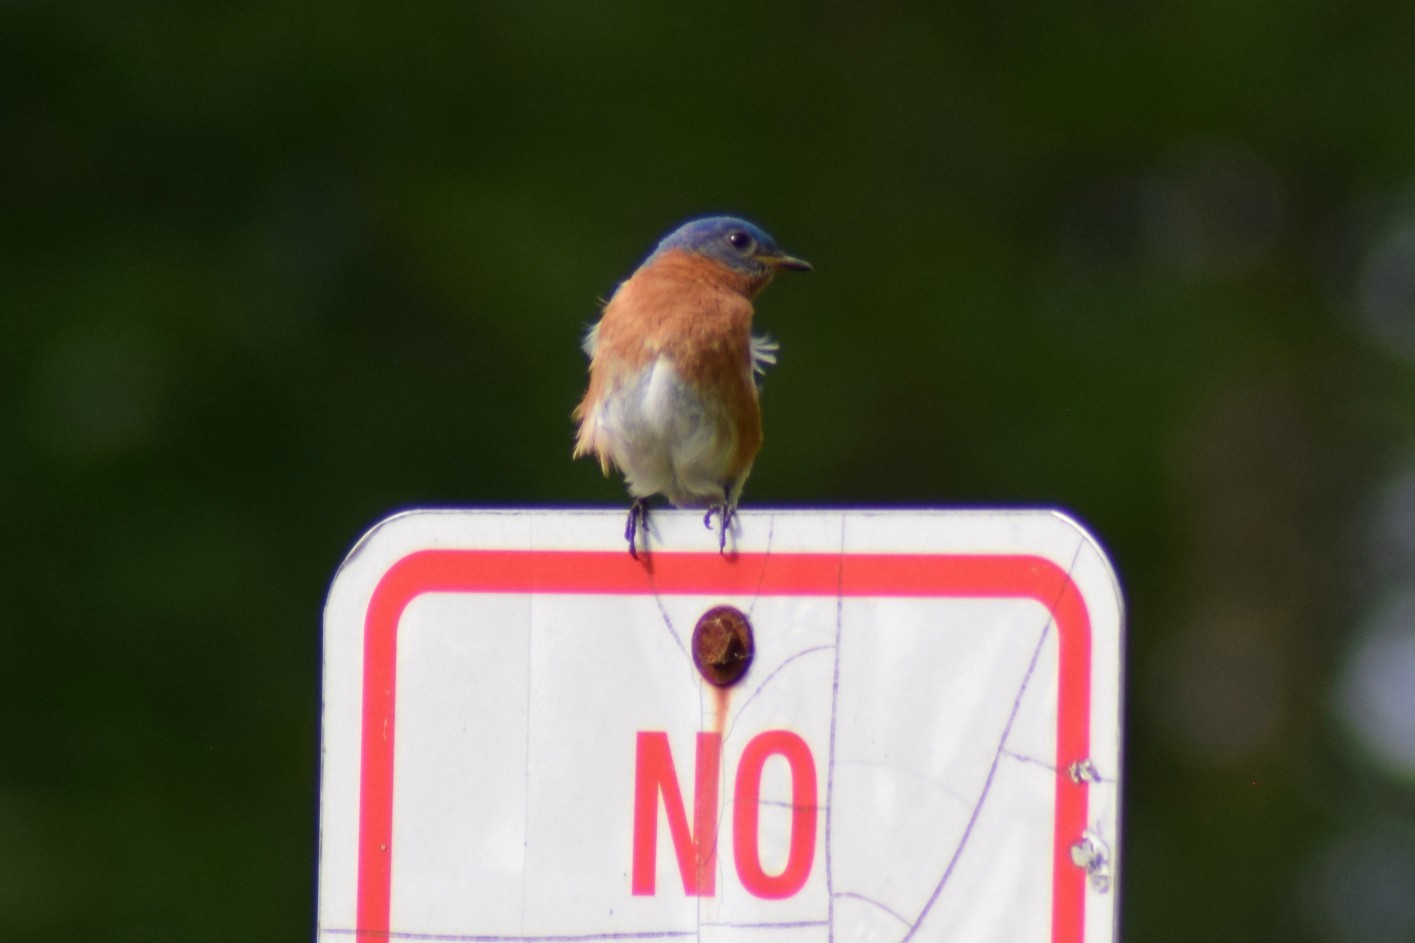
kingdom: Animalia
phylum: Chordata
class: Aves
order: Passeriformes
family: Turdidae
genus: Sialia
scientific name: Sialia sialis
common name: Eastern bluebird
